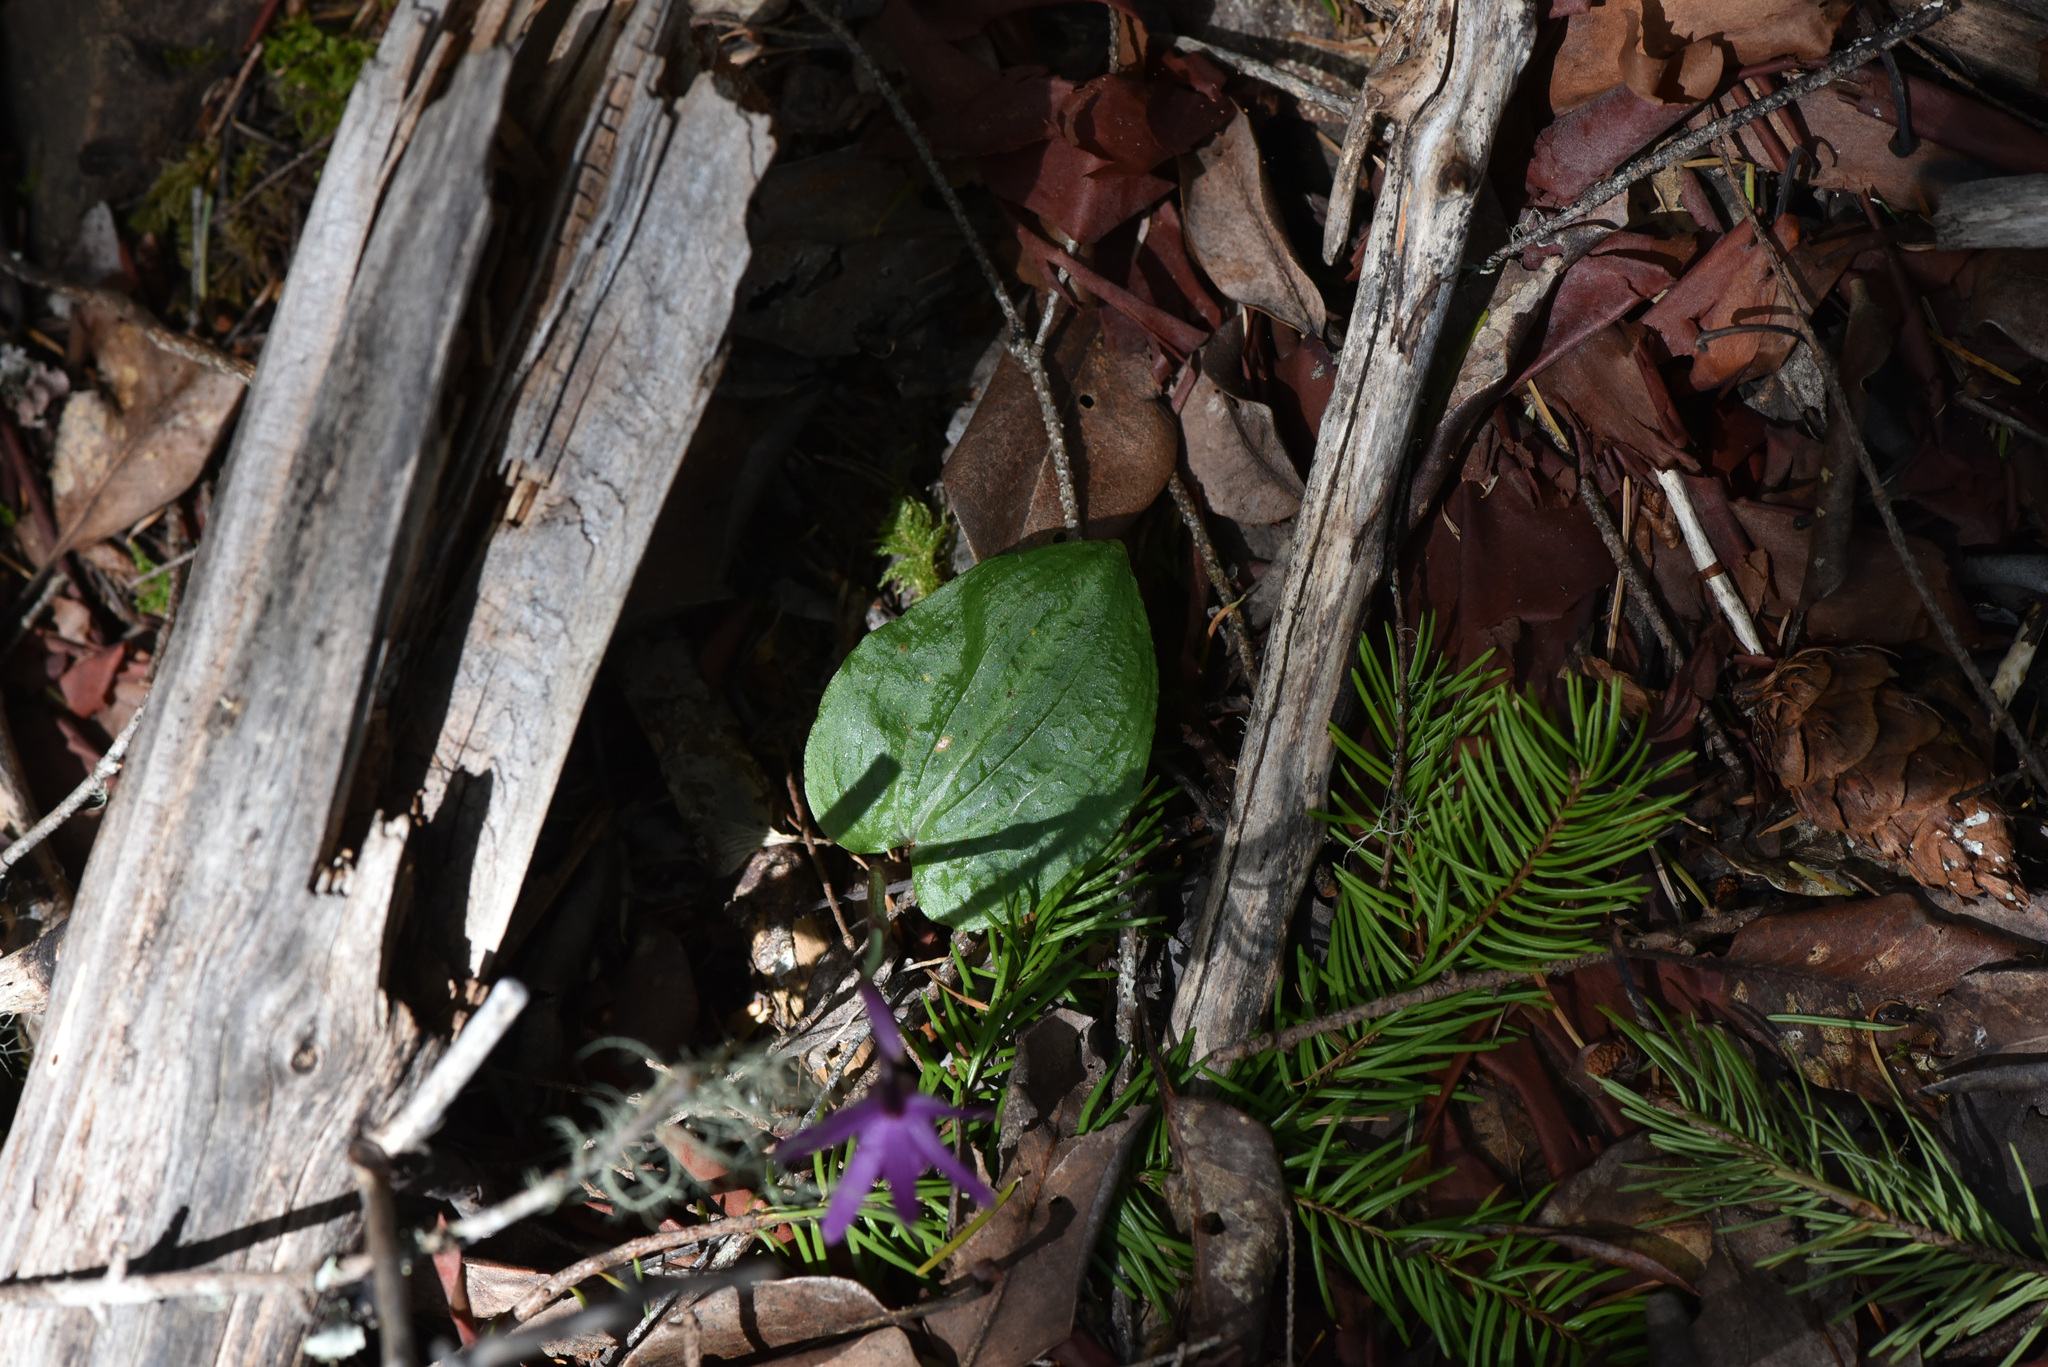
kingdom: Plantae
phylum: Tracheophyta
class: Pinopsida
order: Pinales
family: Pinaceae
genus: Pseudotsuga
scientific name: Pseudotsuga menziesii
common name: Douglas fir
